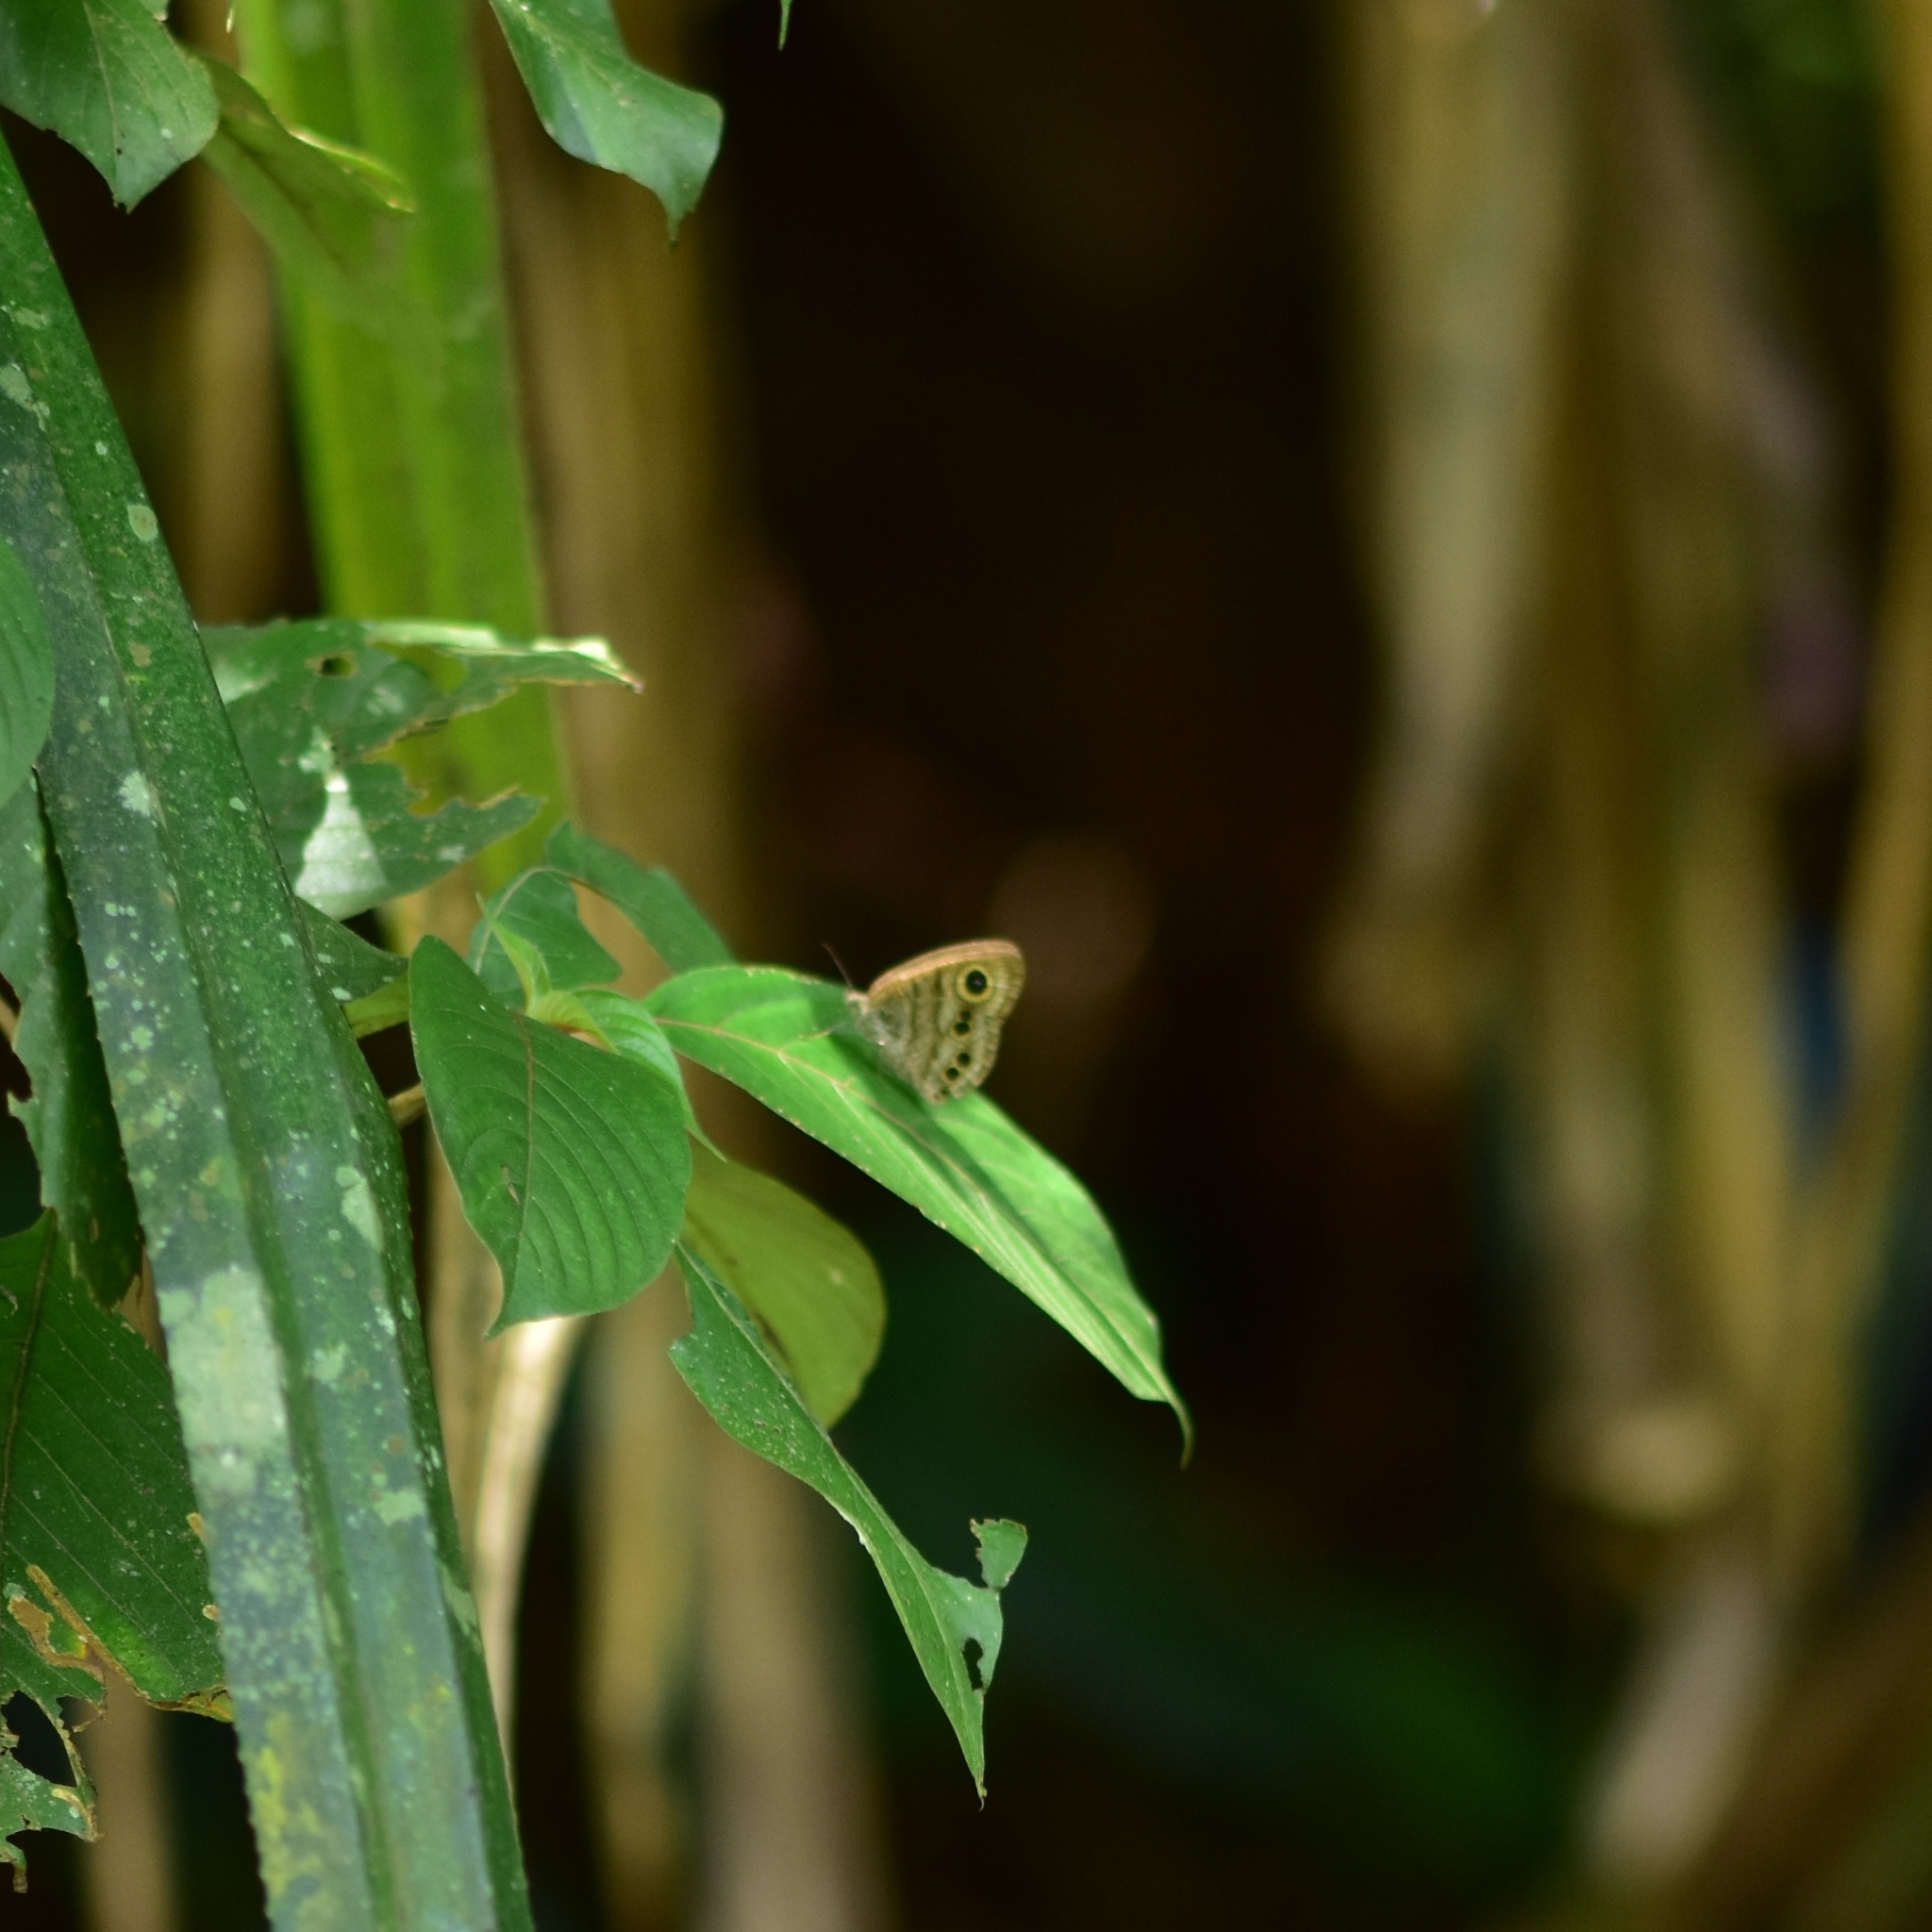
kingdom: Animalia
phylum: Arthropoda
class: Insecta
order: Lepidoptera
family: Nymphalidae
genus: Ypthima
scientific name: Ypthima baldus
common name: Common five-ring
